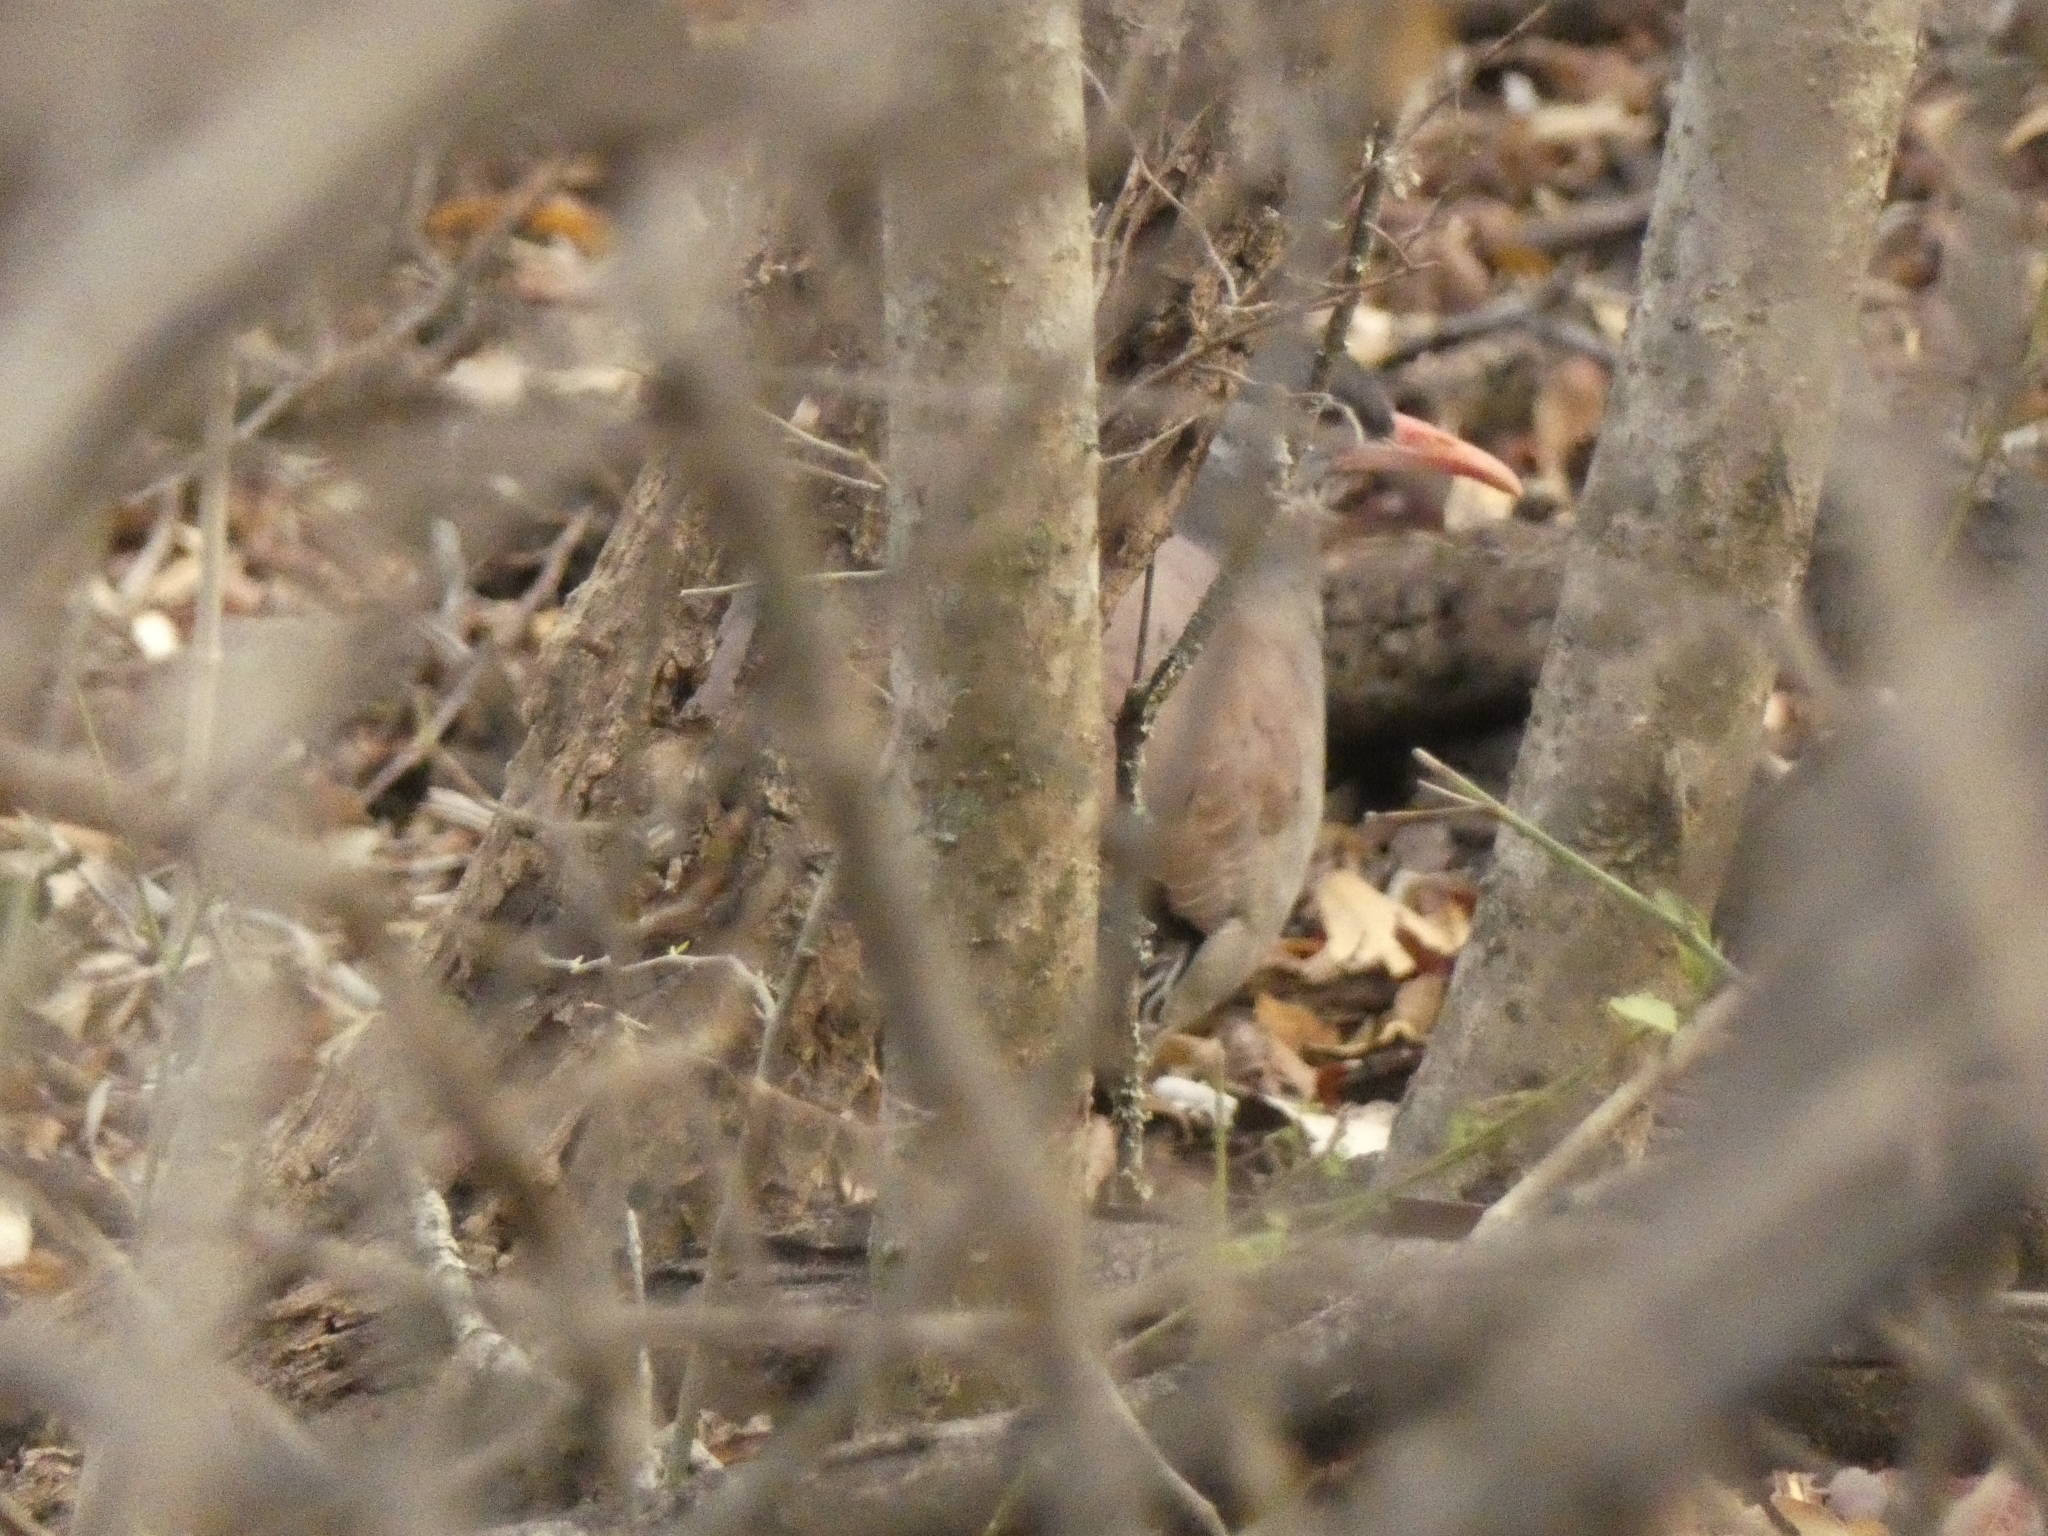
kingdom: Animalia
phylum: Chordata
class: Aves
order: Tinamiformes
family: Tinamidae
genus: Crypturellus
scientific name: Crypturellus tataupa
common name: Tataupa tinamou
